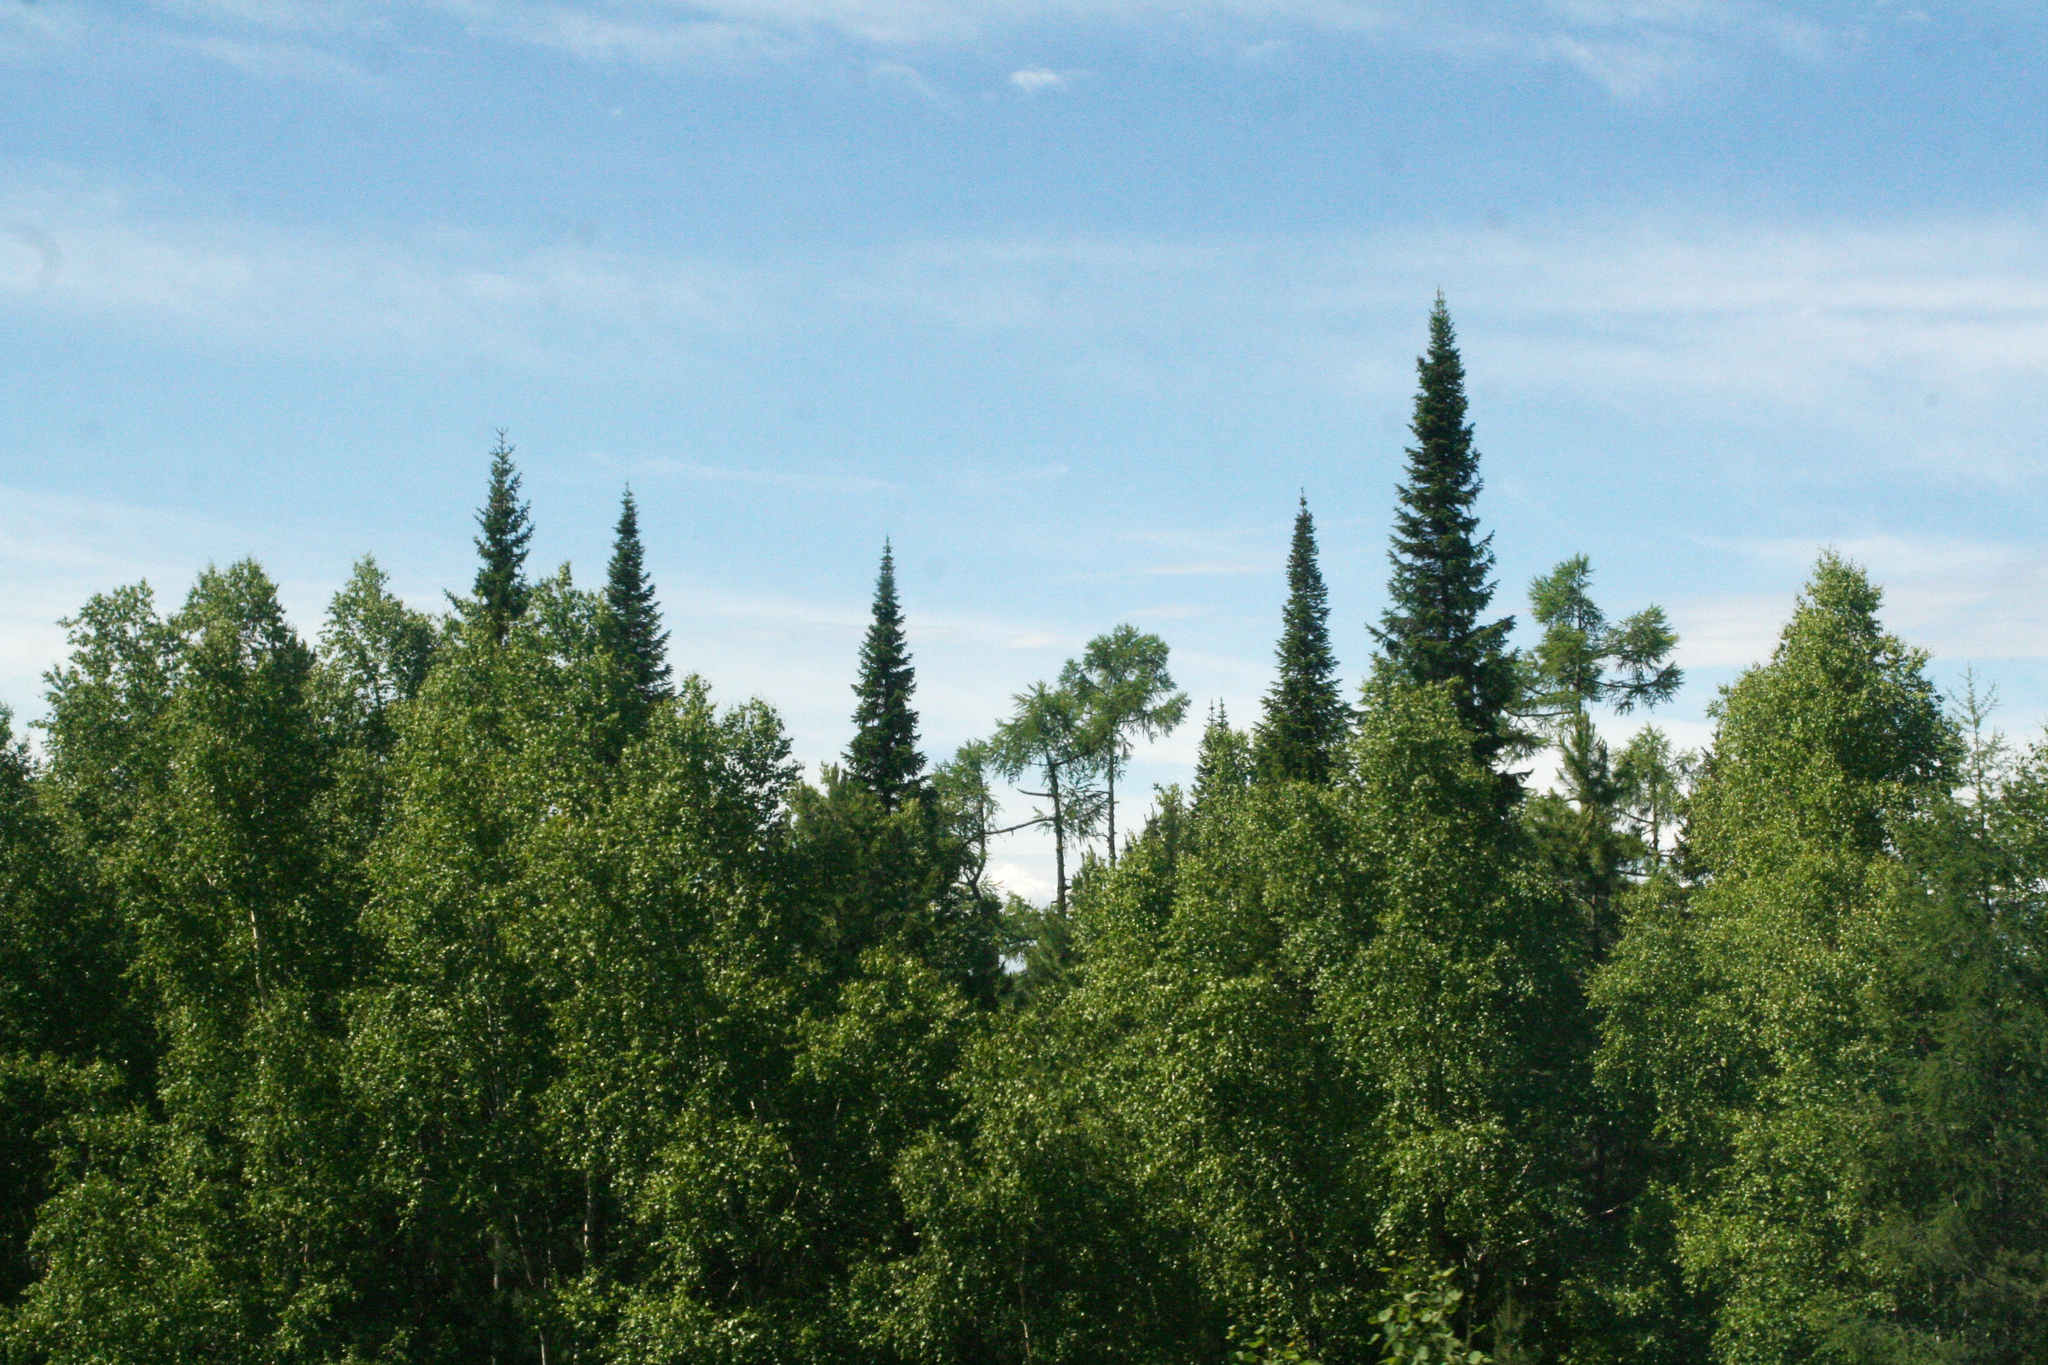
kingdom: Plantae
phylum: Tracheophyta
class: Pinopsida
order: Pinales
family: Pinaceae
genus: Abies
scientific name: Abies sibirica
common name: Siberian fir
